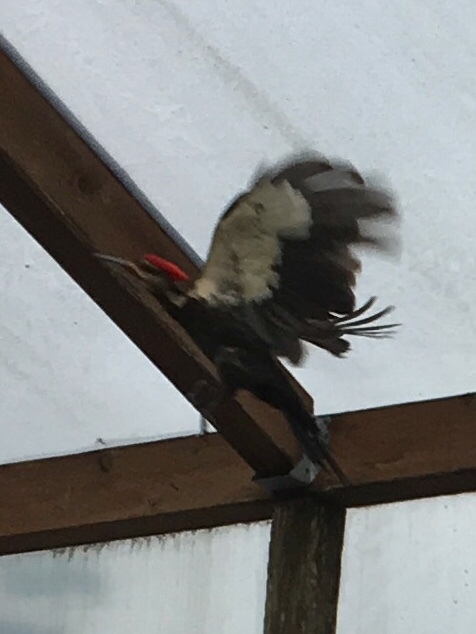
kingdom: Animalia
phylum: Chordata
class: Aves
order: Piciformes
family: Picidae
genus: Dryocopus
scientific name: Dryocopus pileatus
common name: Pileated woodpecker
